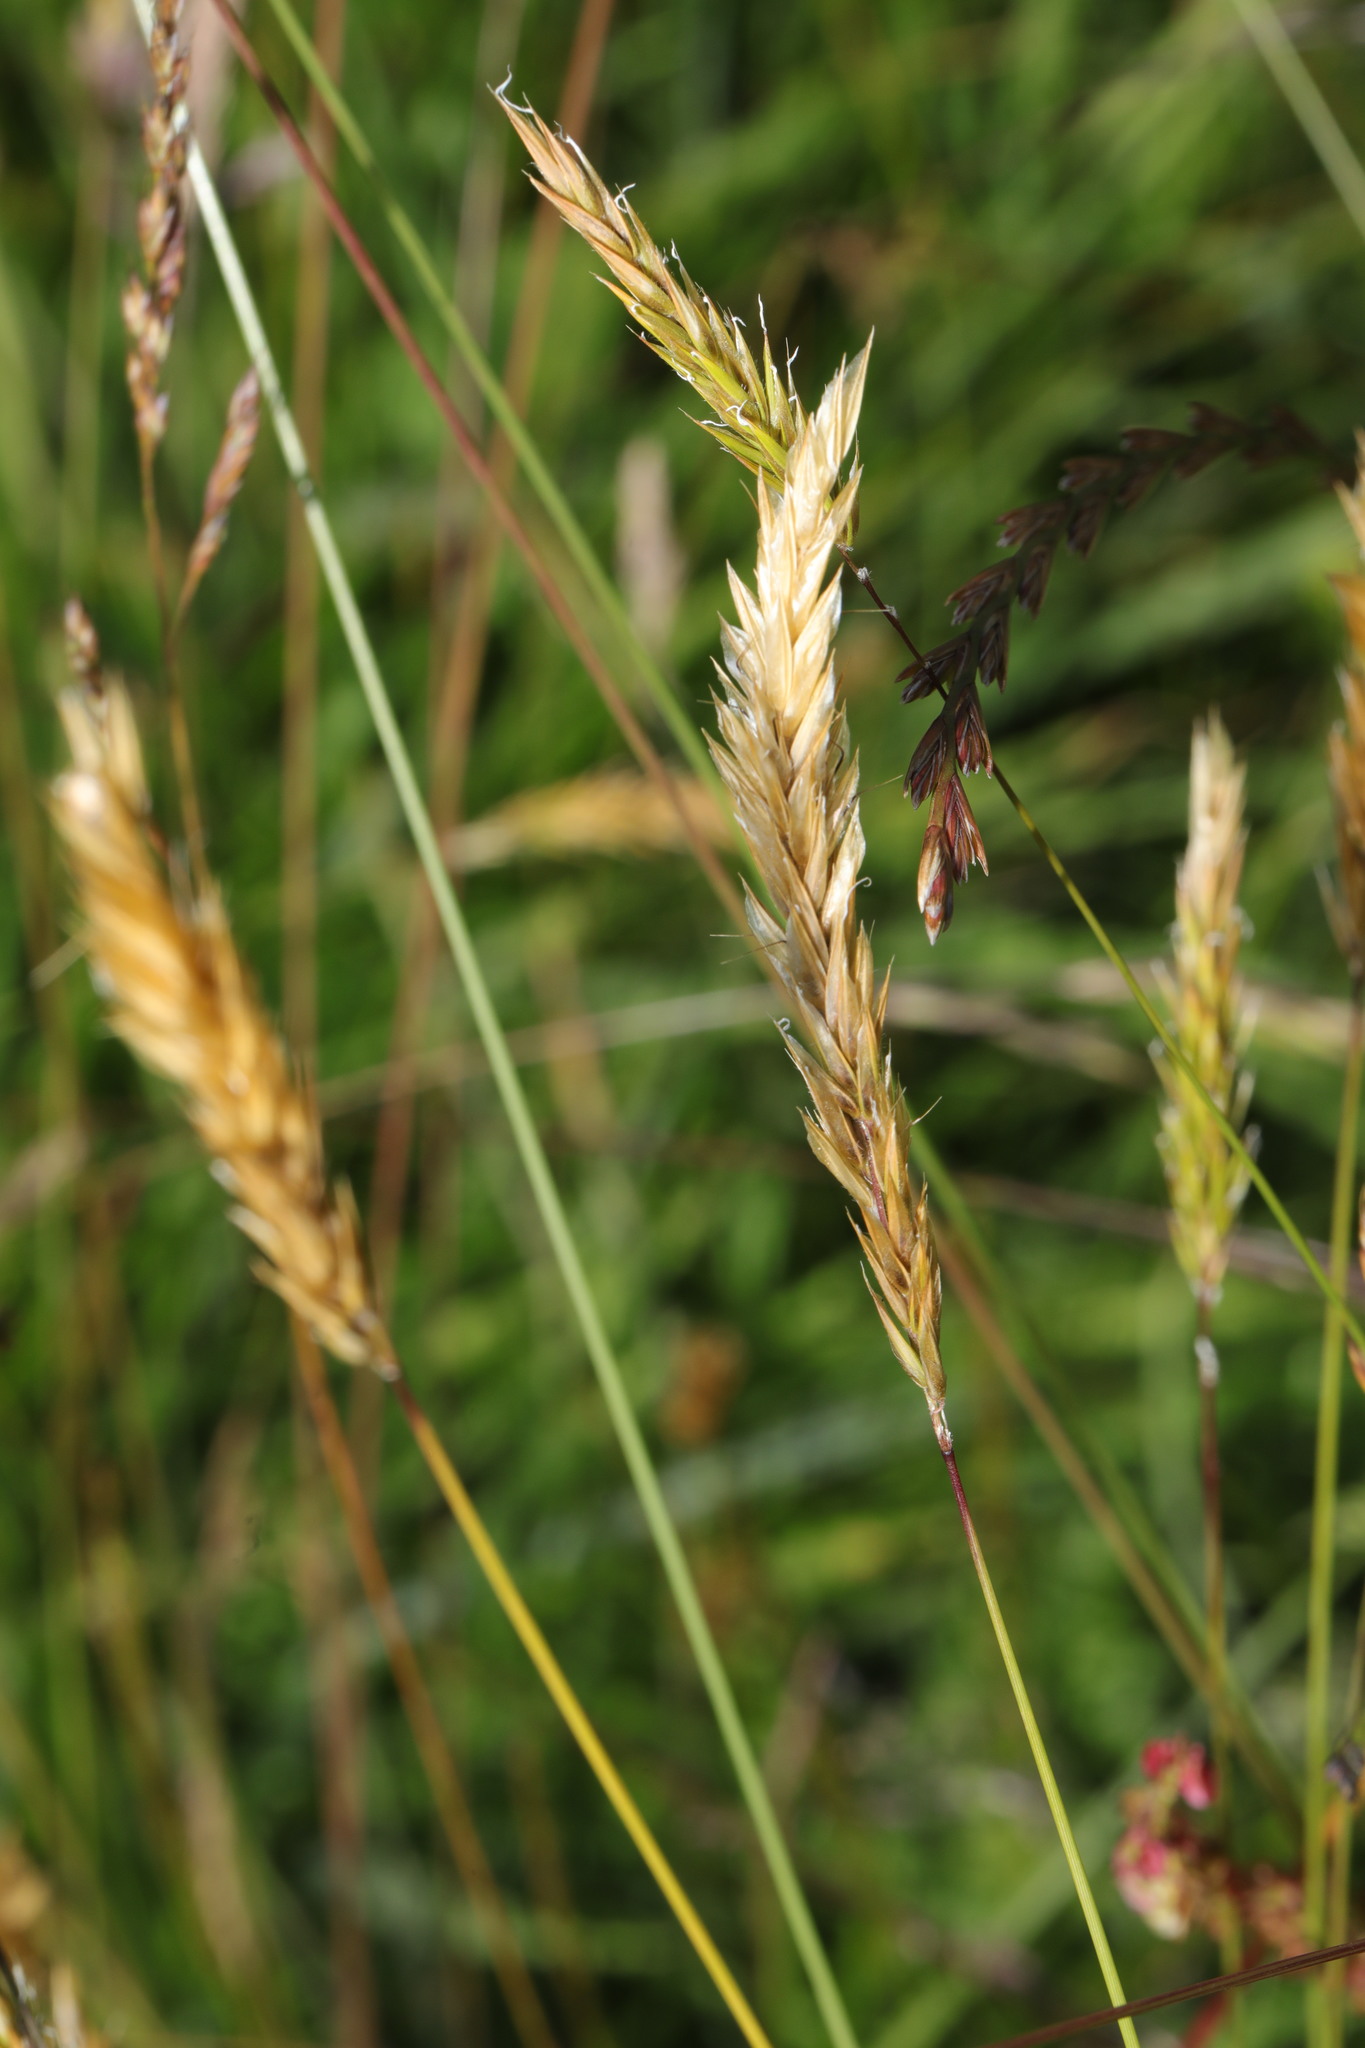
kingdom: Plantae
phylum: Tracheophyta
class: Liliopsida
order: Poales
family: Poaceae
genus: Anthoxanthum
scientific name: Anthoxanthum odoratum
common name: Sweet vernalgrass
